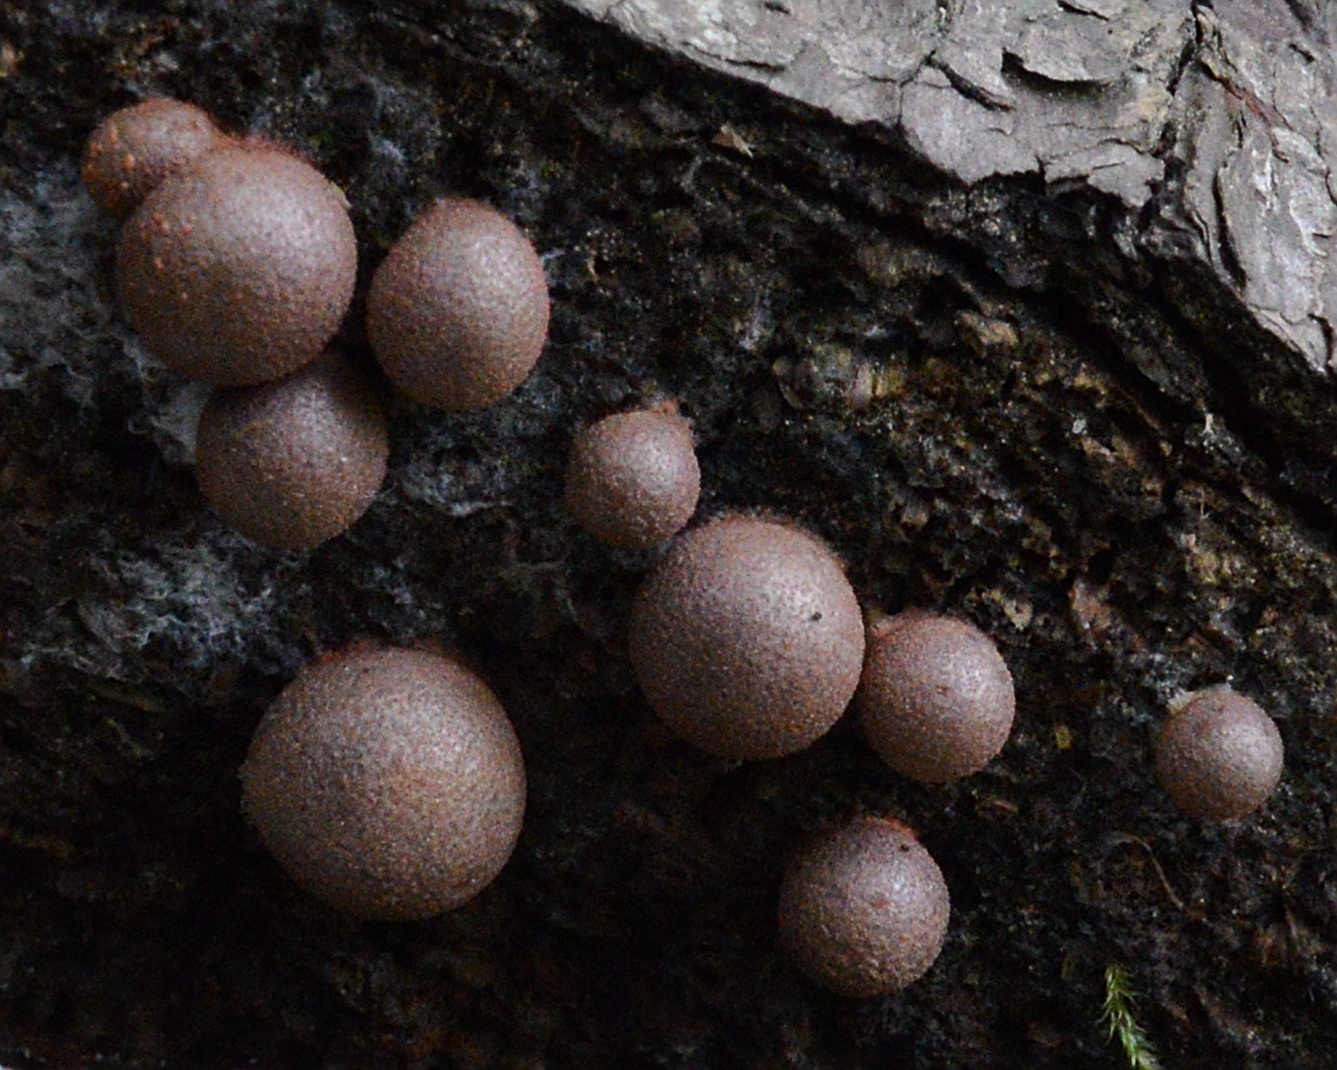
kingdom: Protozoa
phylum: Mycetozoa
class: Myxomycetes
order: Cribrariales
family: Tubiferaceae
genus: Lycogala
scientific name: Lycogala epidendrum
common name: Wolf's milk
